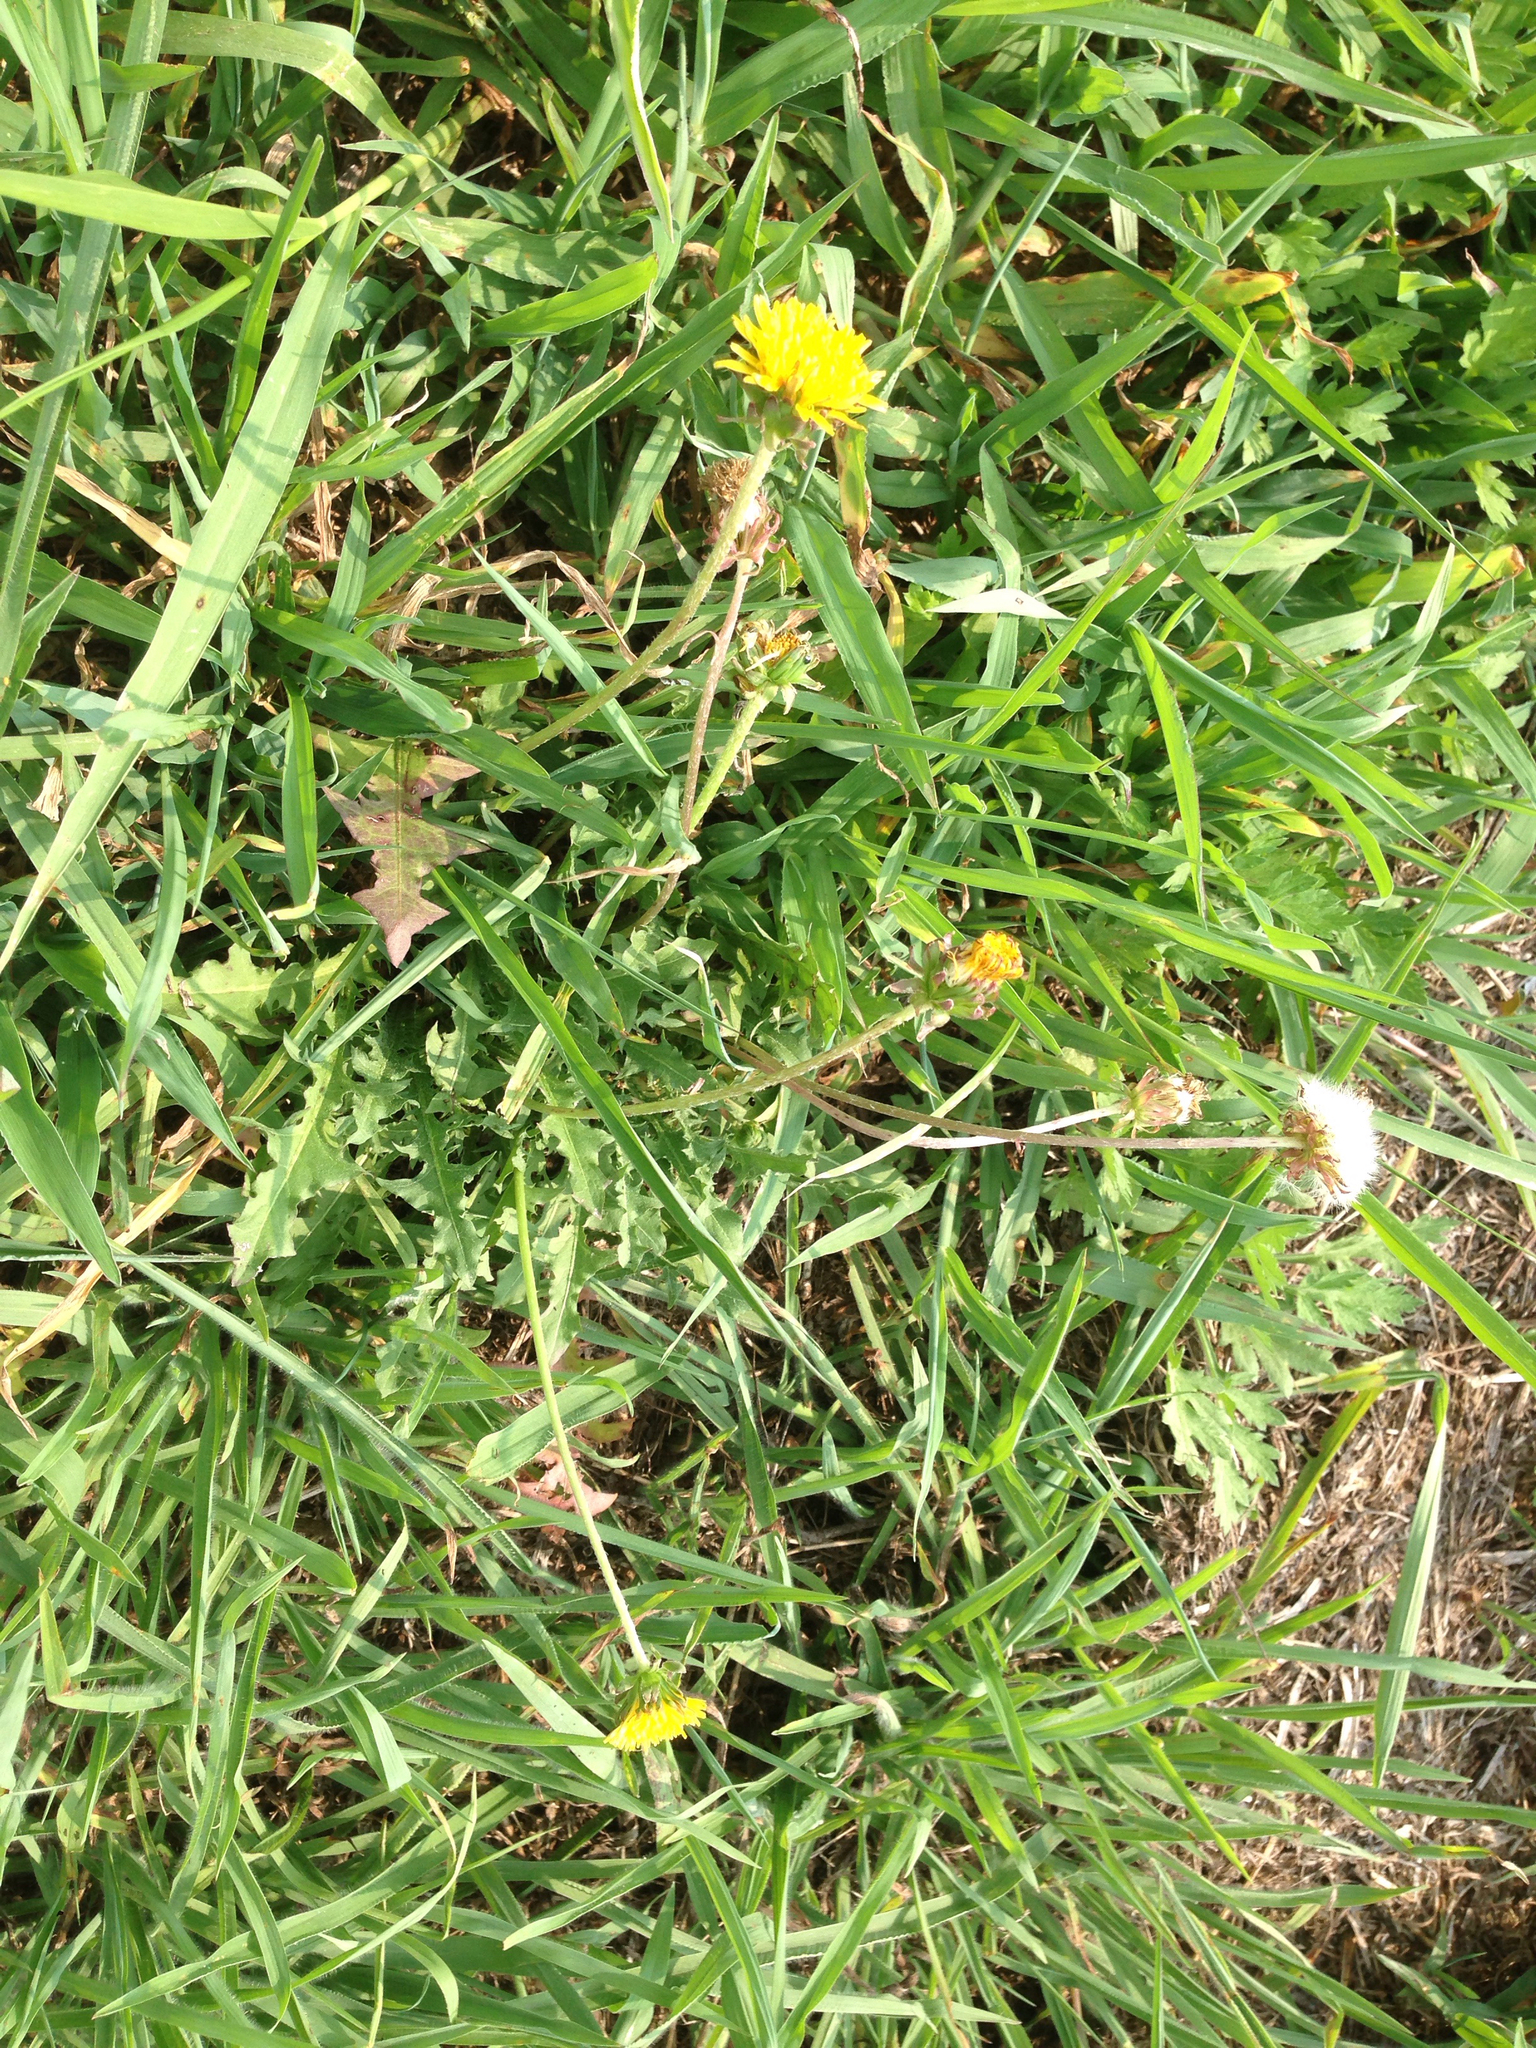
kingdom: Plantae
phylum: Tracheophyta
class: Magnoliopsida
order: Asterales
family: Asteraceae
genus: Taraxacum
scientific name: Taraxacum officinale
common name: Common dandelion
